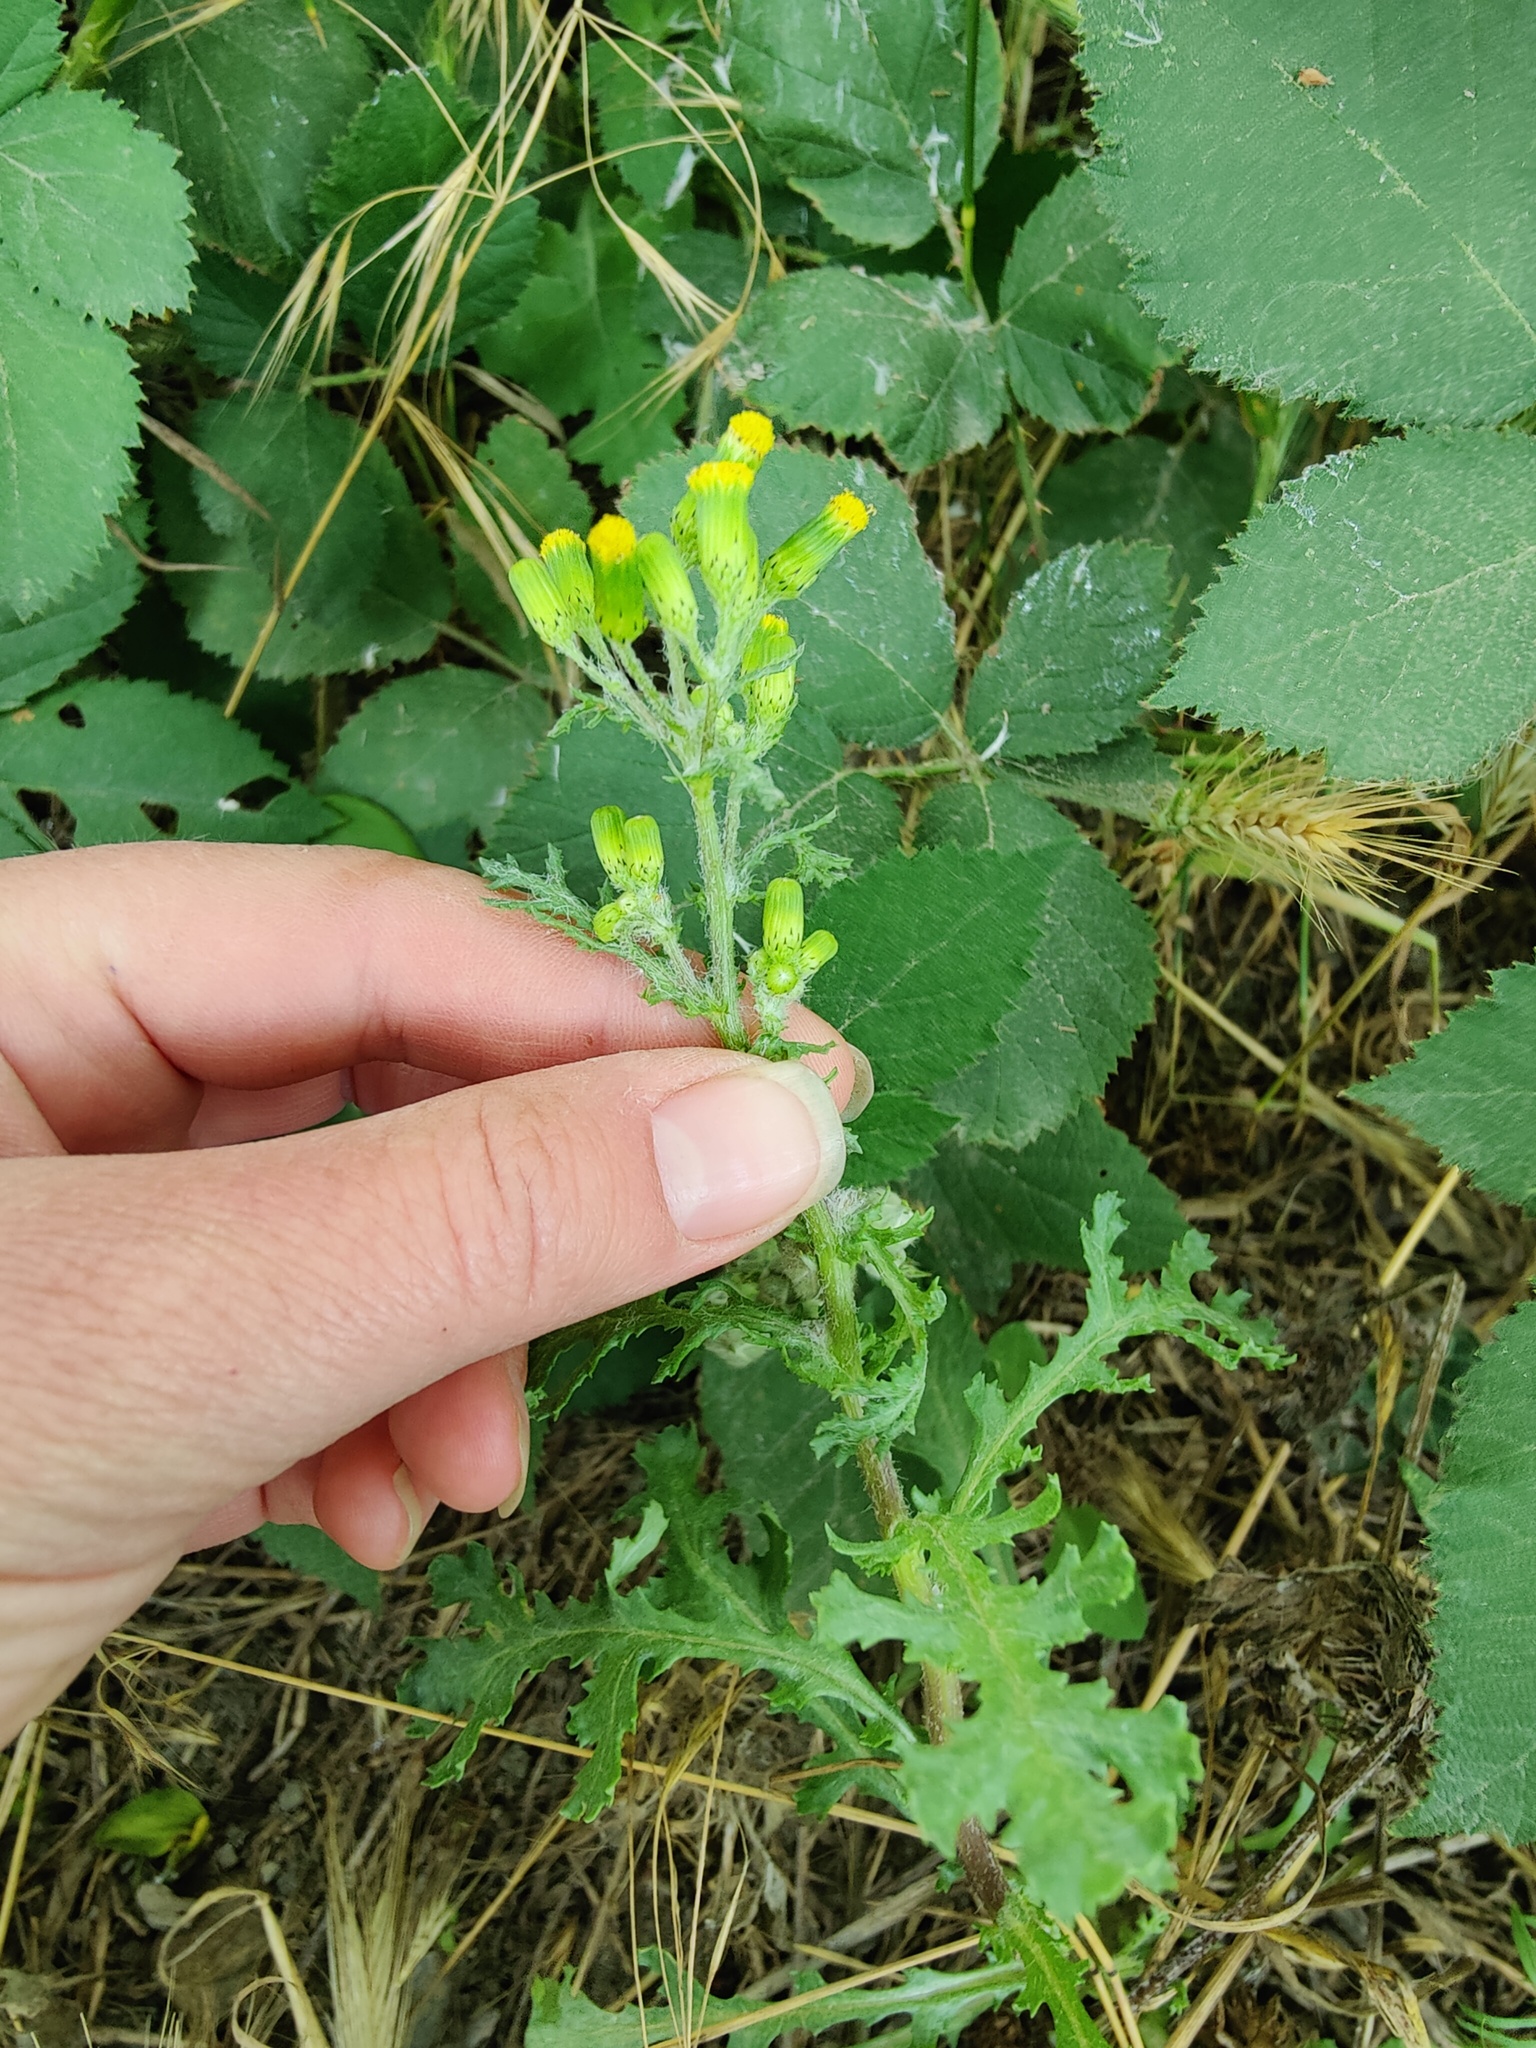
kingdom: Plantae
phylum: Tracheophyta
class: Magnoliopsida
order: Asterales
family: Asteraceae
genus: Senecio
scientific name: Senecio vulgaris
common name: Old-man-in-the-spring
